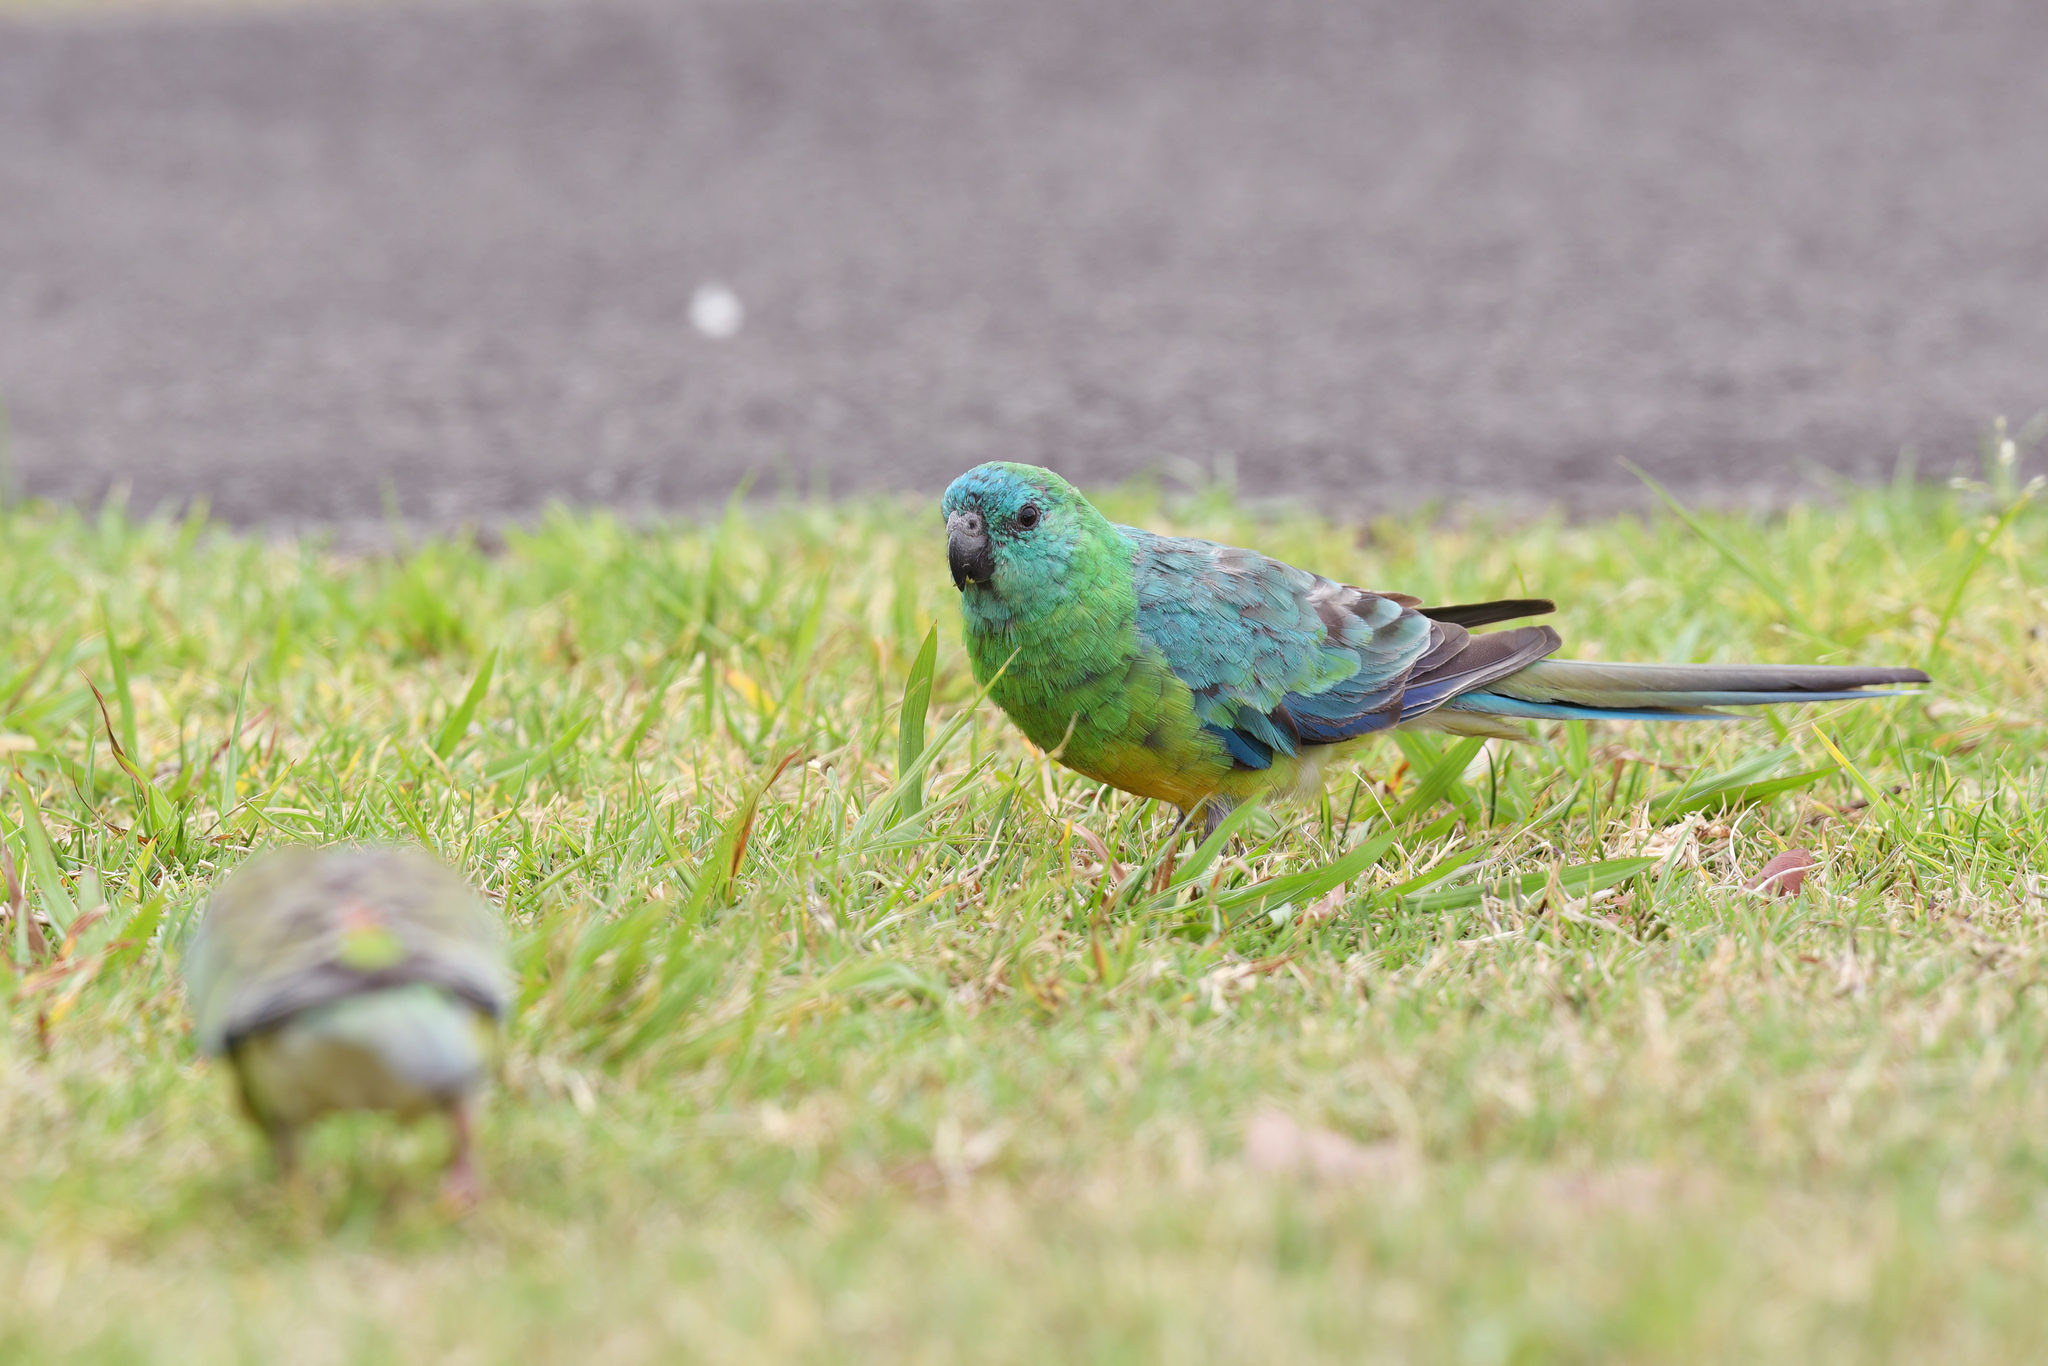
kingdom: Animalia
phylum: Chordata
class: Aves
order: Psittaciformes
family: Psittacidae
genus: Psephotus
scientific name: Psephotus haematonotus
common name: Red-rumped parrot
